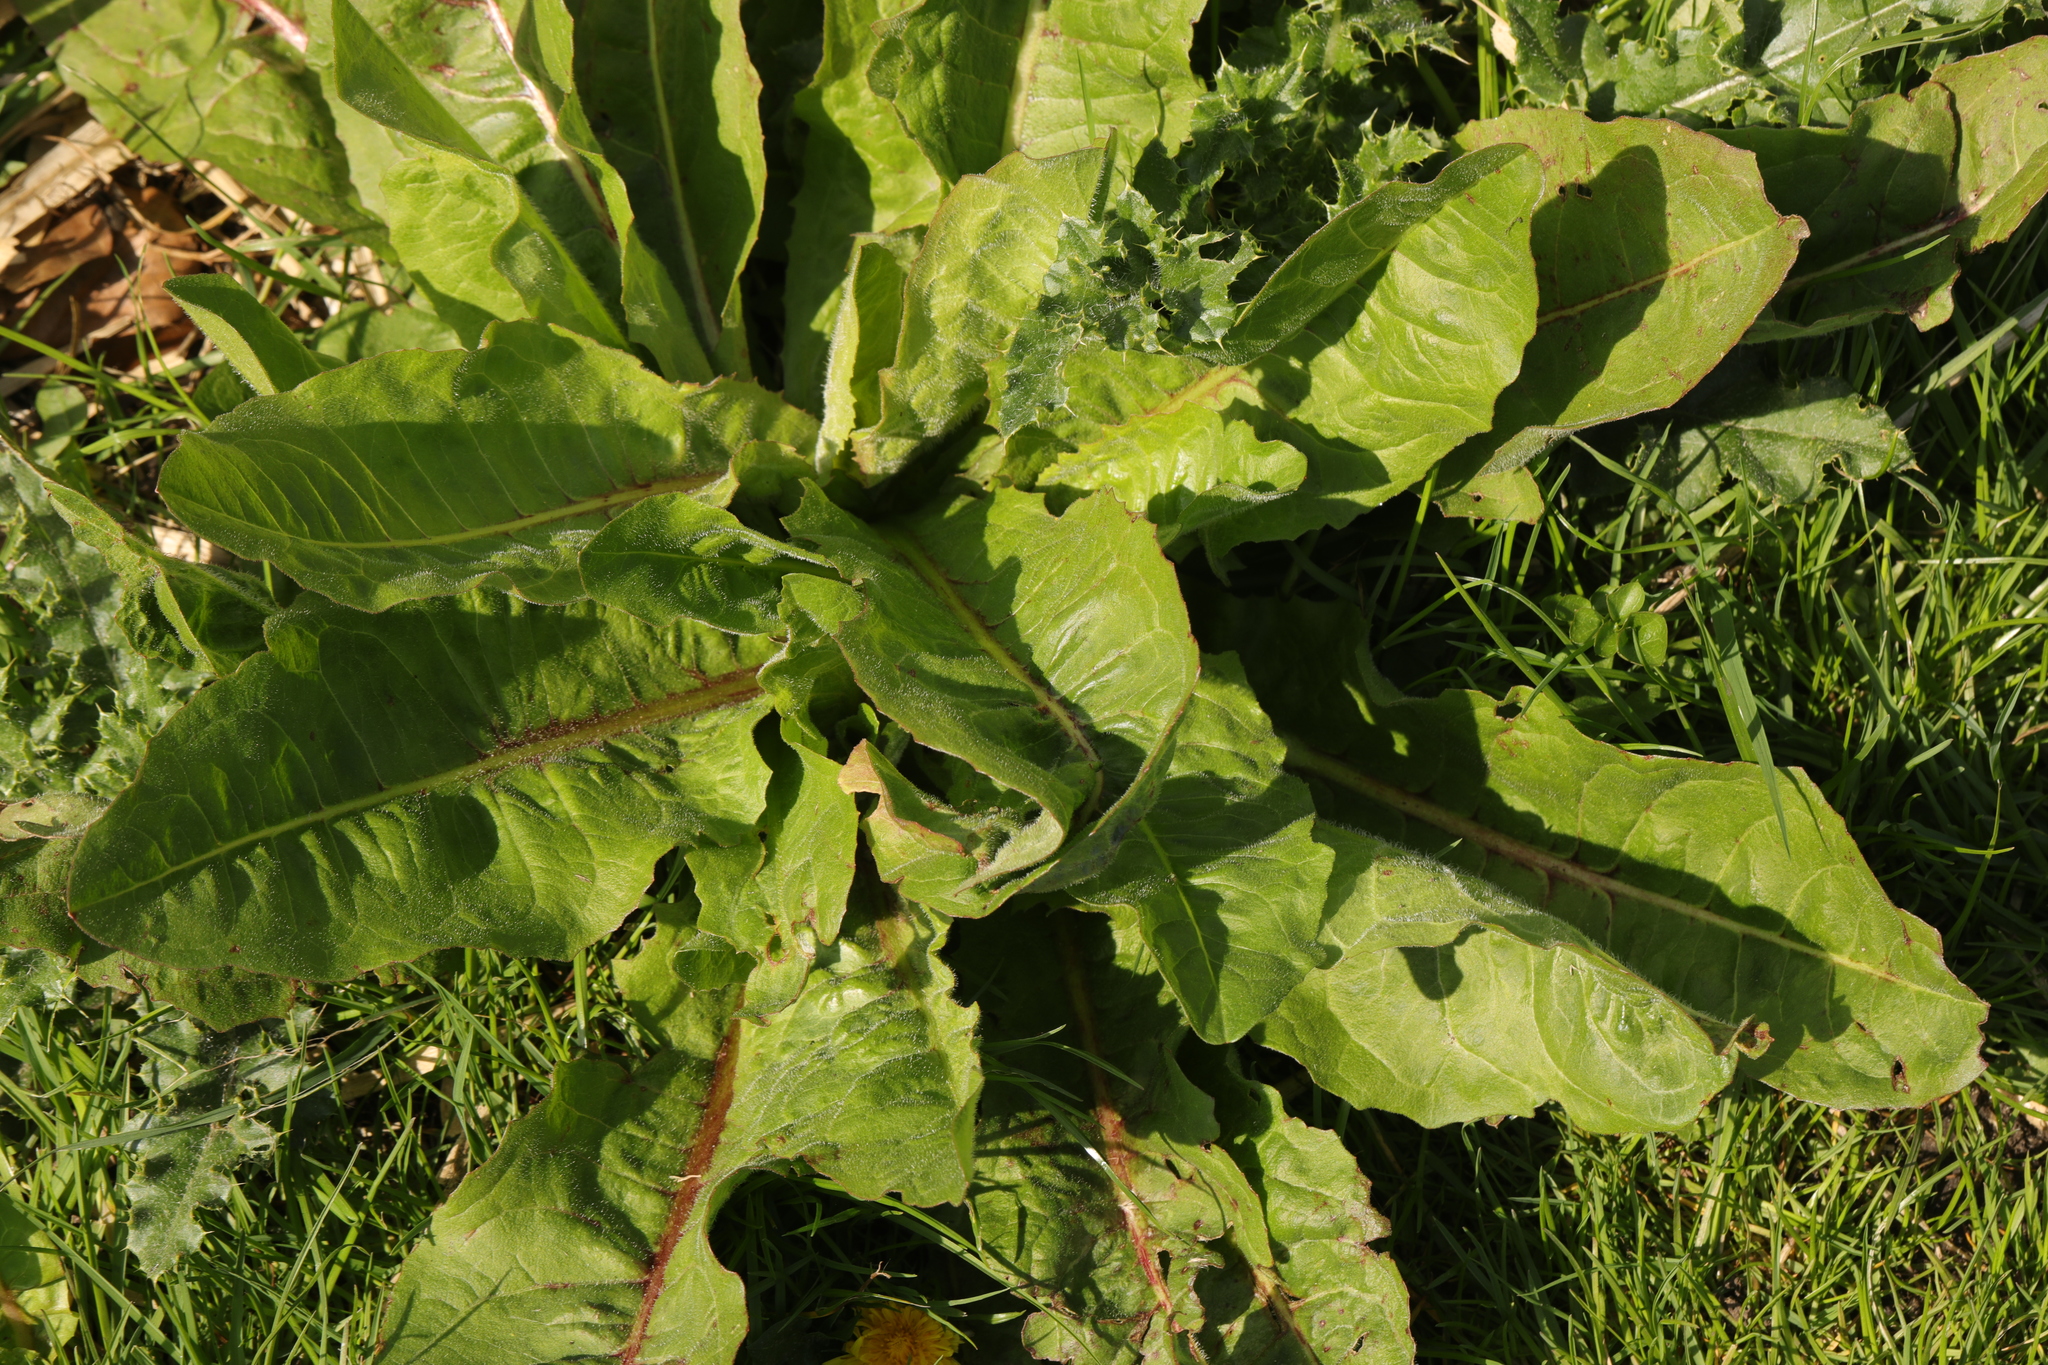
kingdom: Plantae
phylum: Tracheophyta
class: Magnoliopsida
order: Asterales
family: Asteraceae
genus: Taraxacum
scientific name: Taraxacum
